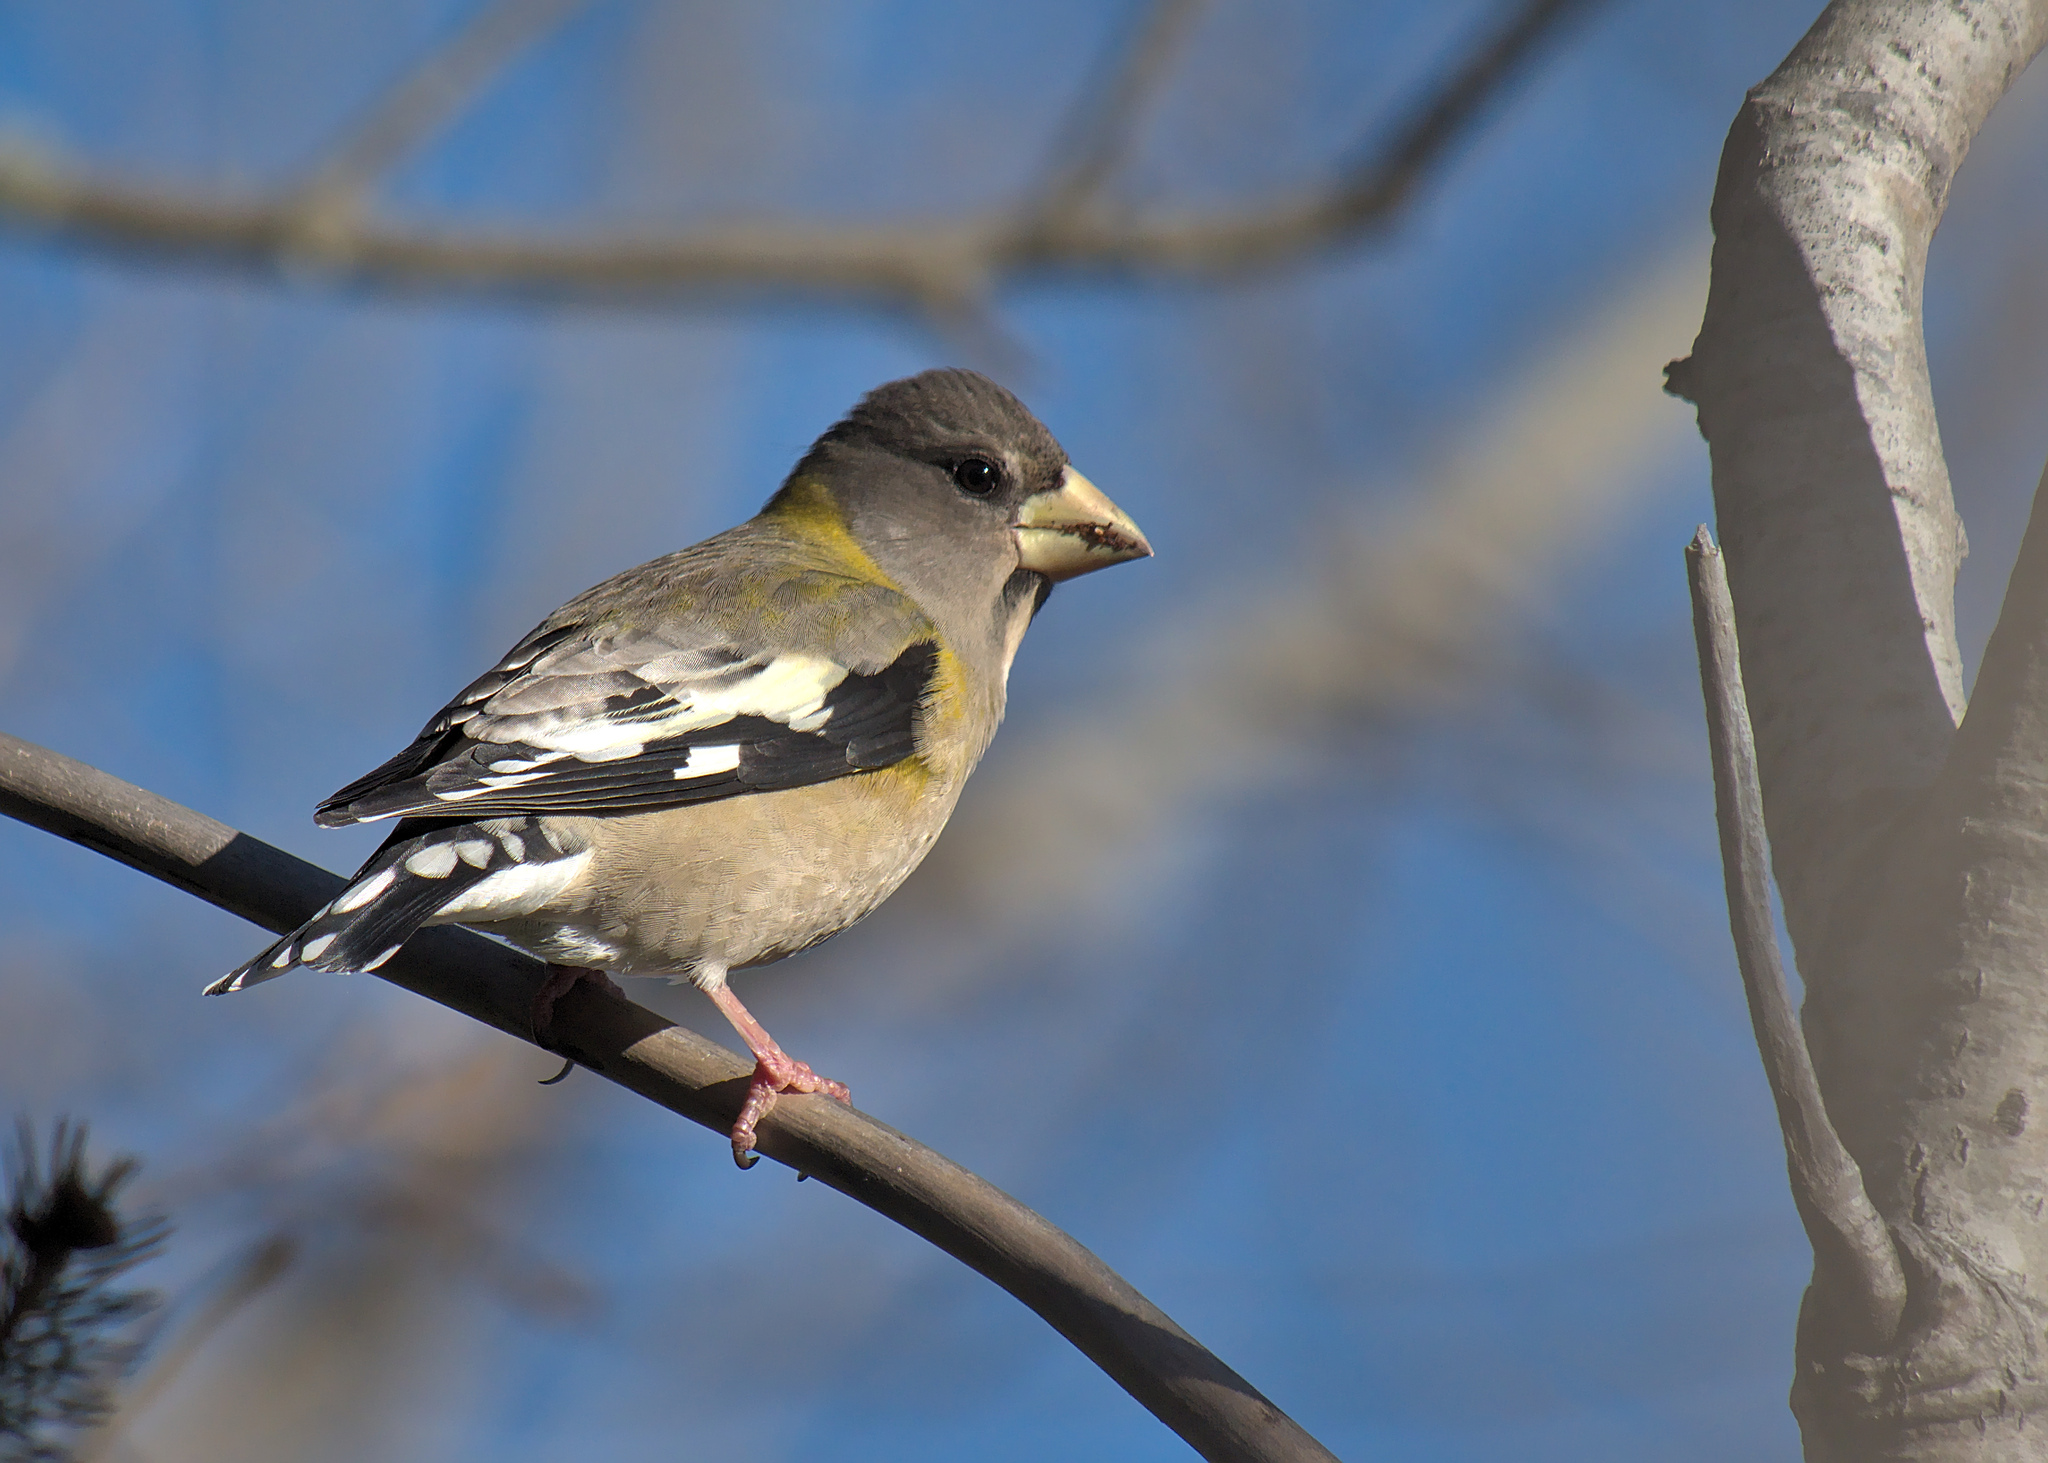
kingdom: Animalia
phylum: Chordata
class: Aves
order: Passeriformes
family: Fringillidae
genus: Hesperiphona
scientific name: Hesperiphona vespertina
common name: Evening grosbeak
